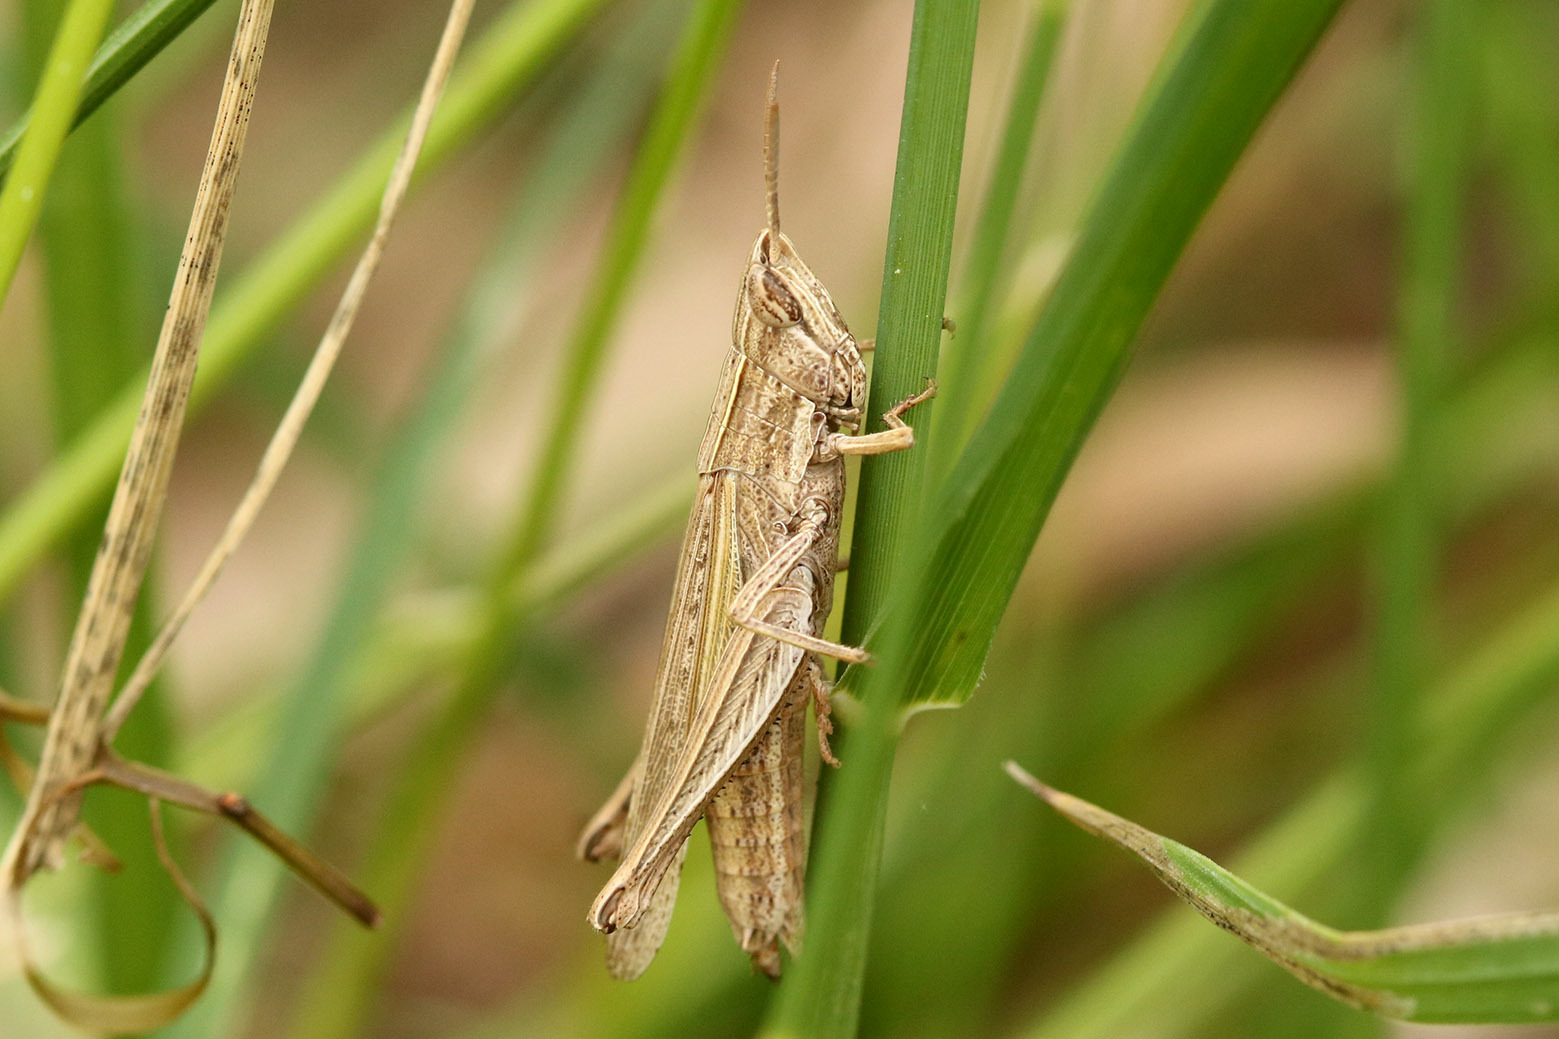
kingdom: Animalia
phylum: Arthropoda
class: Insecta
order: Orthoptera
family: Acrididae
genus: Laplatacris
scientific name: Laplatacris dispar
